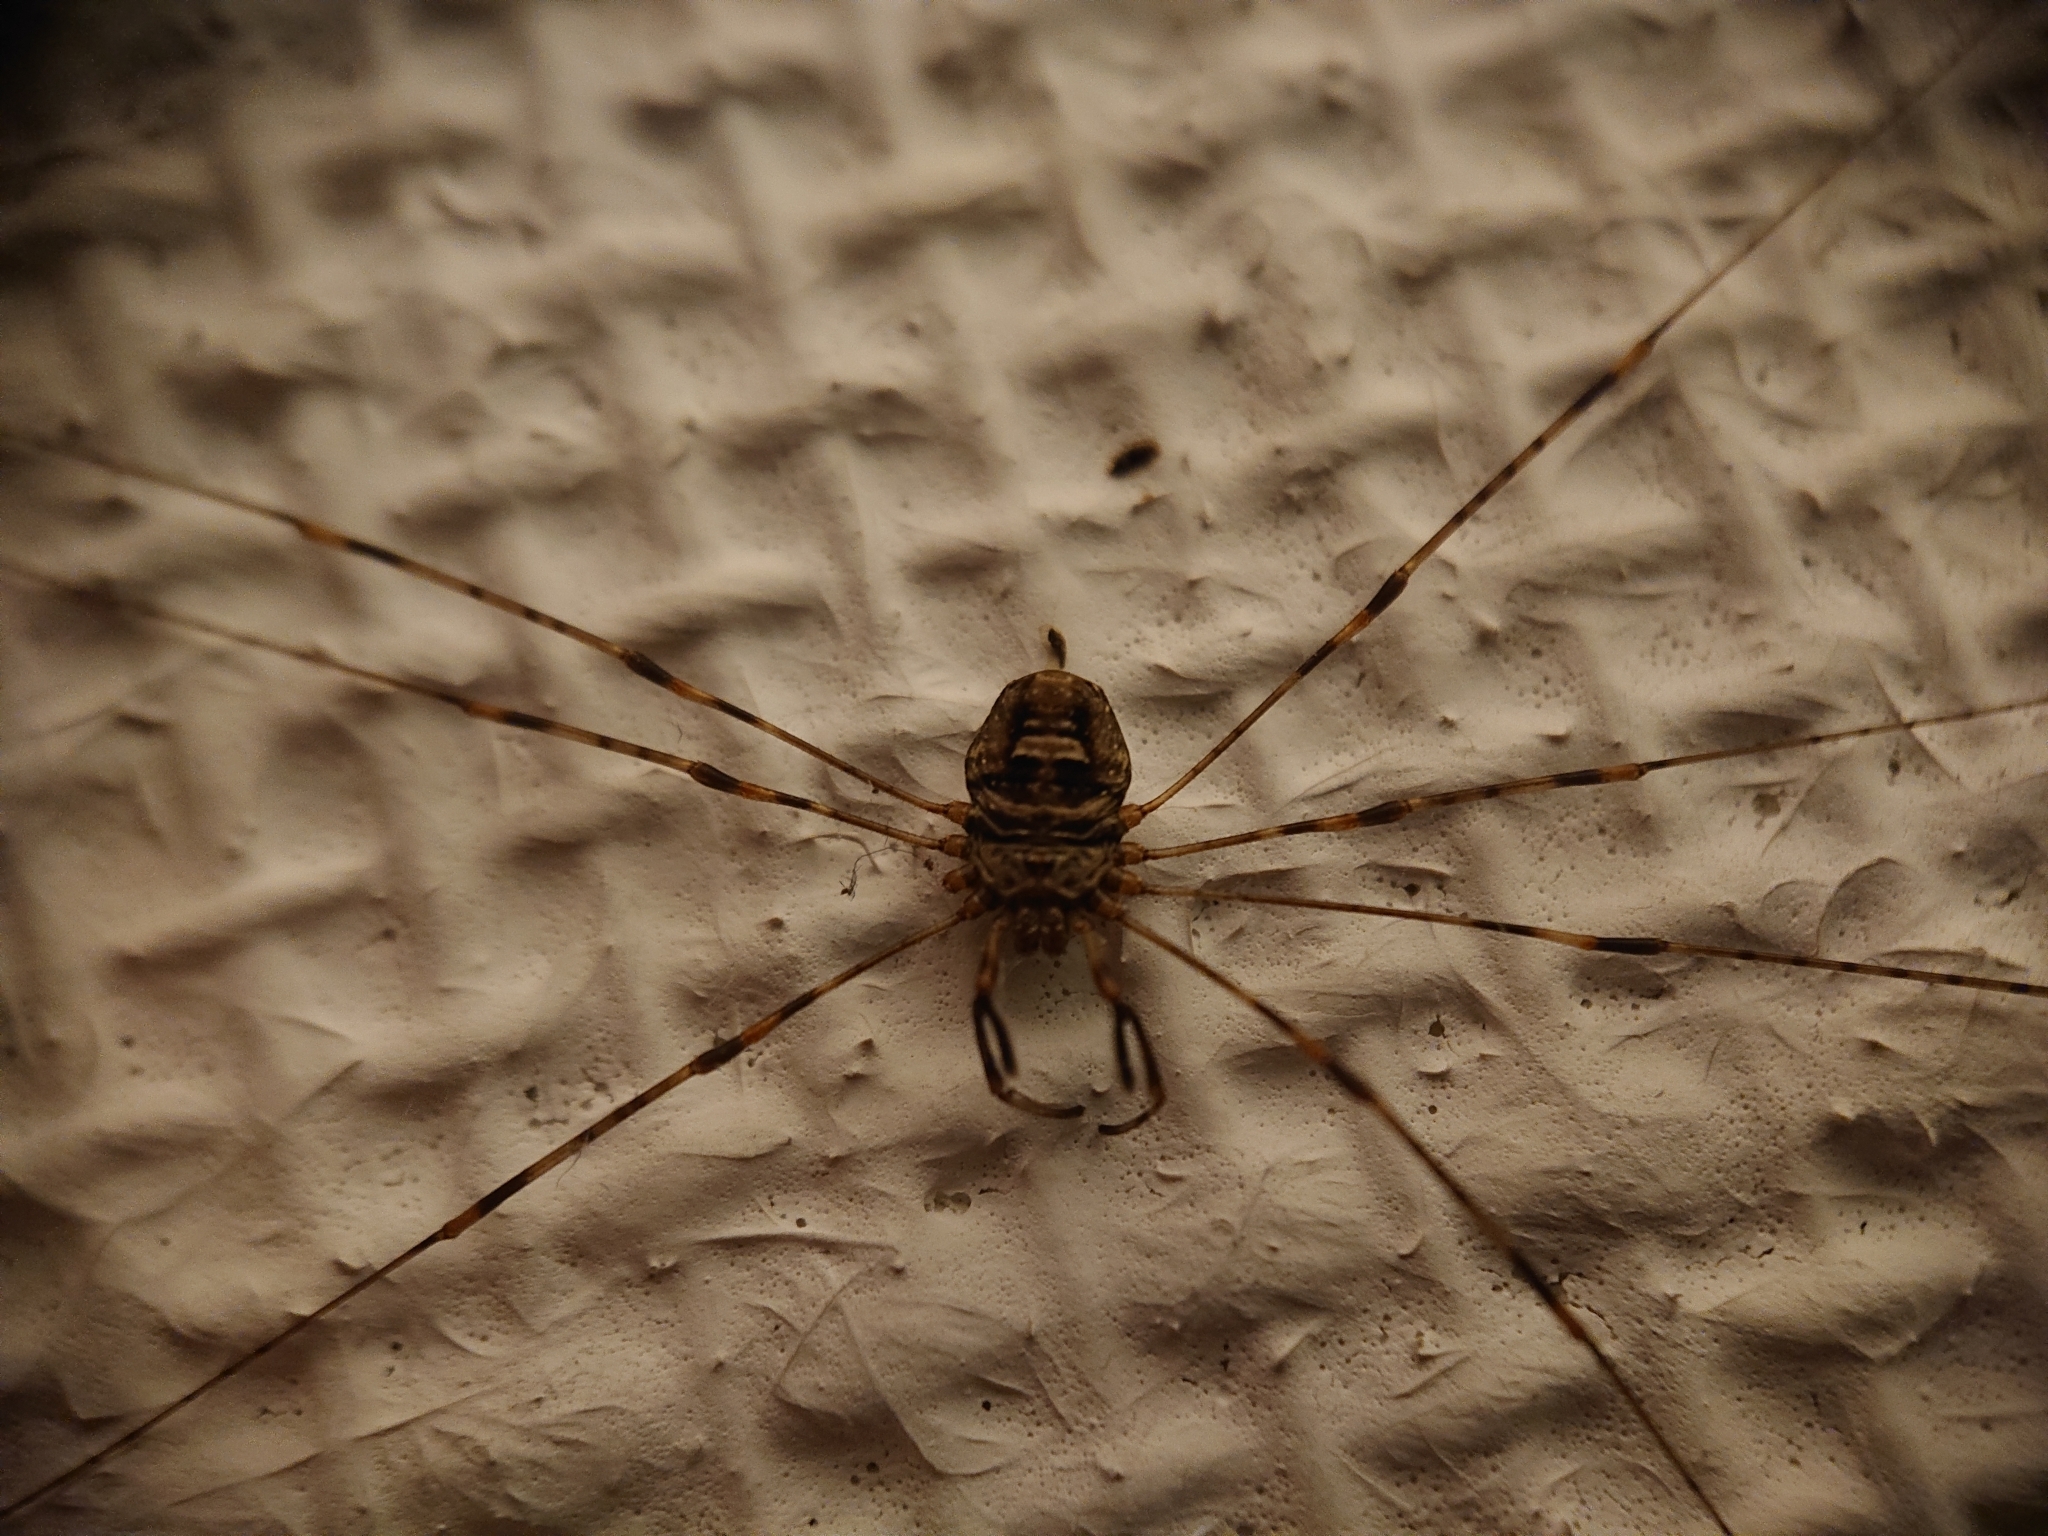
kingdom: Animalia
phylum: Arthropoda
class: Arachnida
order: Opiliones
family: Phalangiidae
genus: Dicranopalpus
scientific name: Dicranopalpus ramosus
